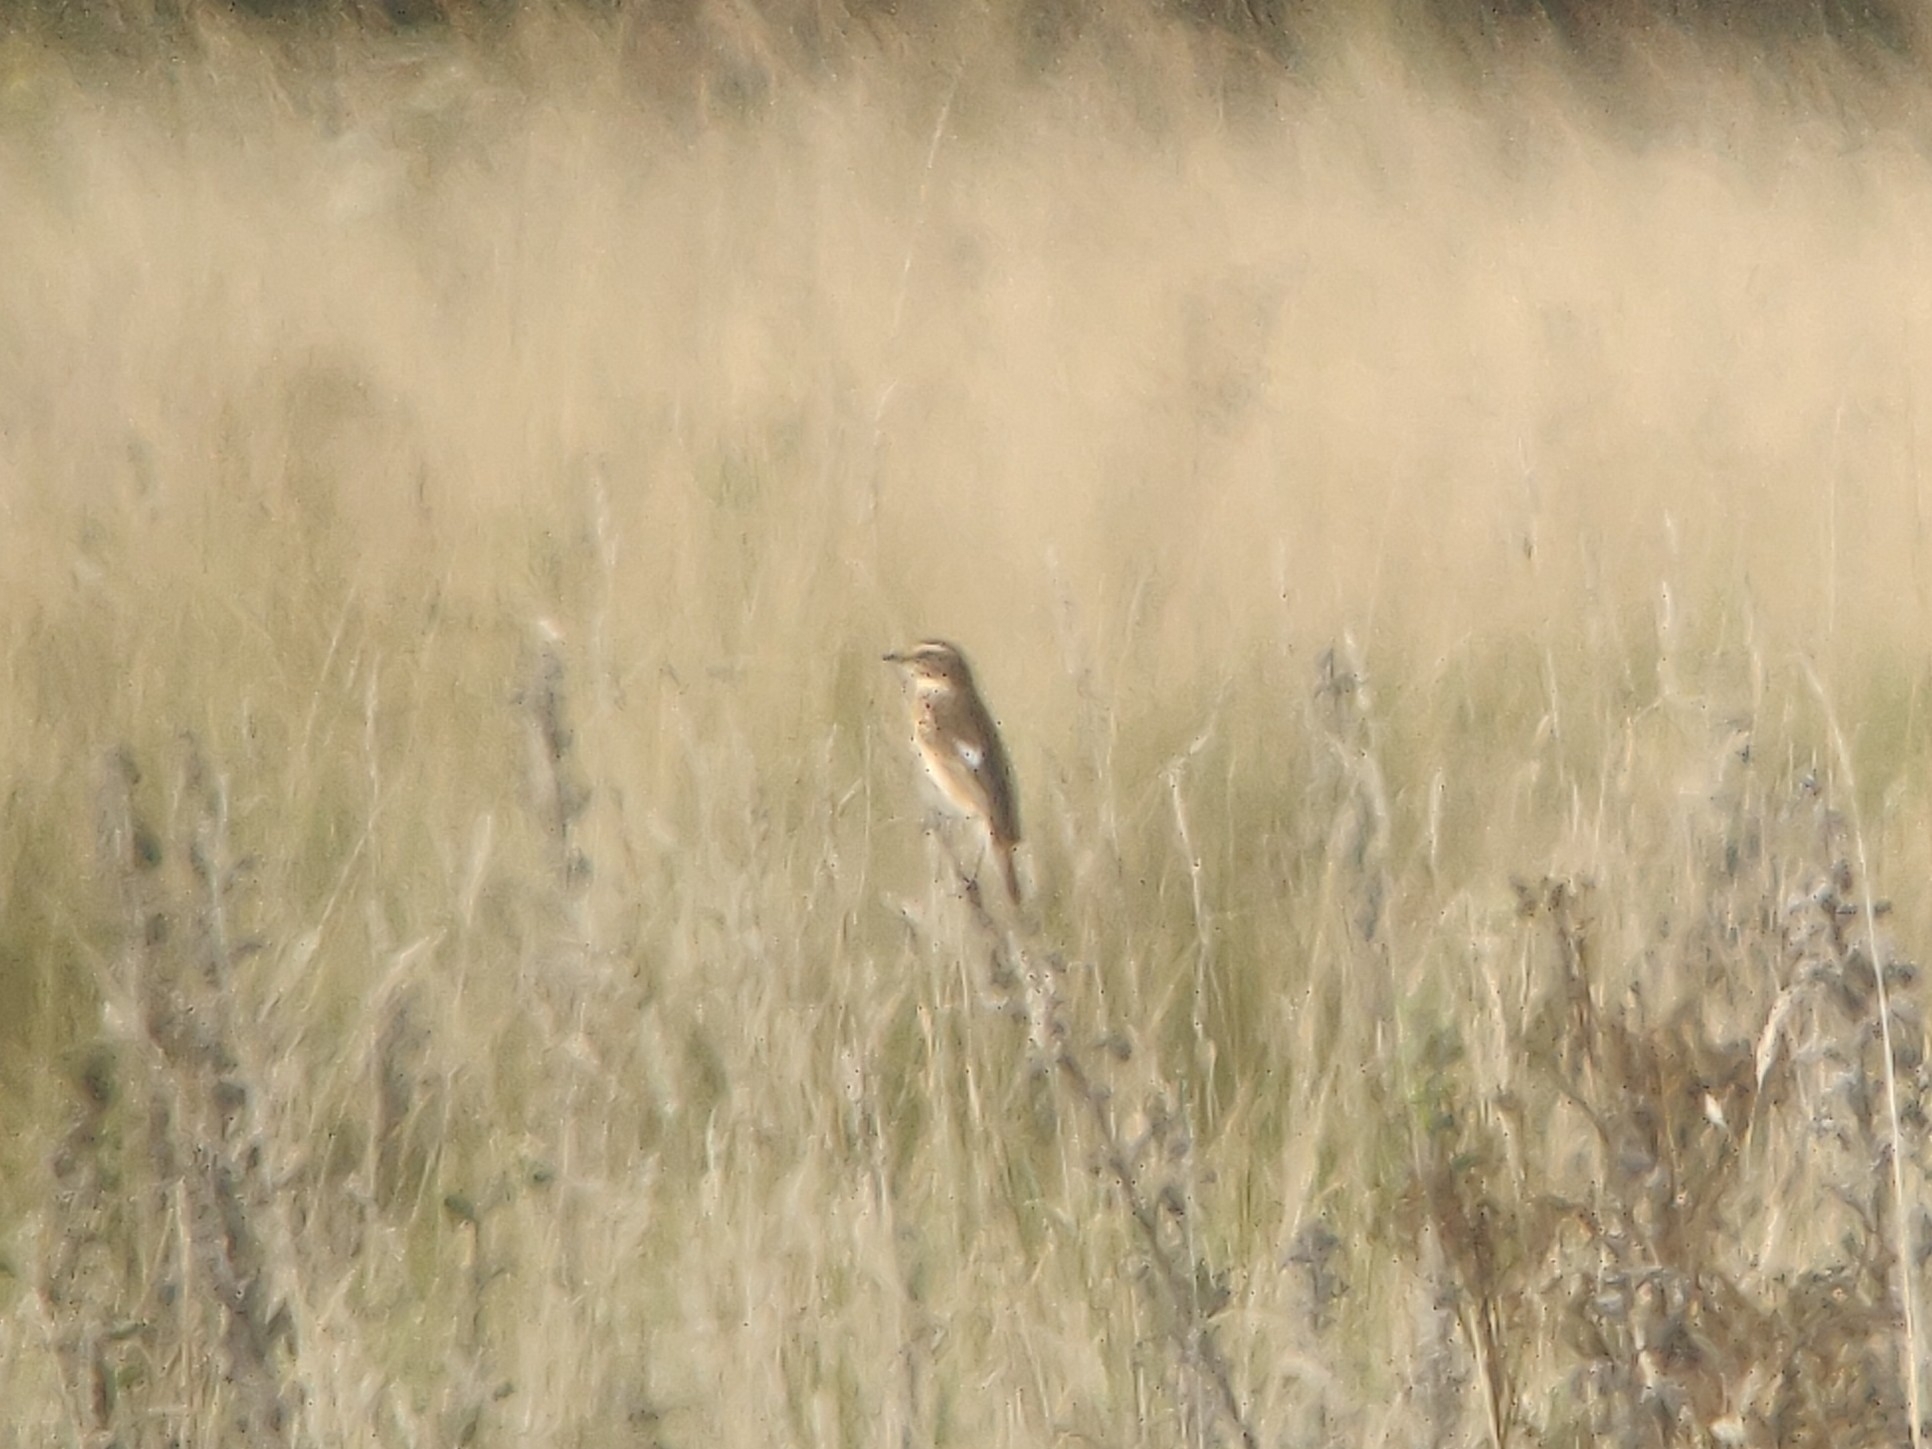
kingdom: Animalia
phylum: Chordata
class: Aves
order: Passeriformes
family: Muscicapidae
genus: Saxicola
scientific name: Saxicola rubetra
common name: Whinchat
